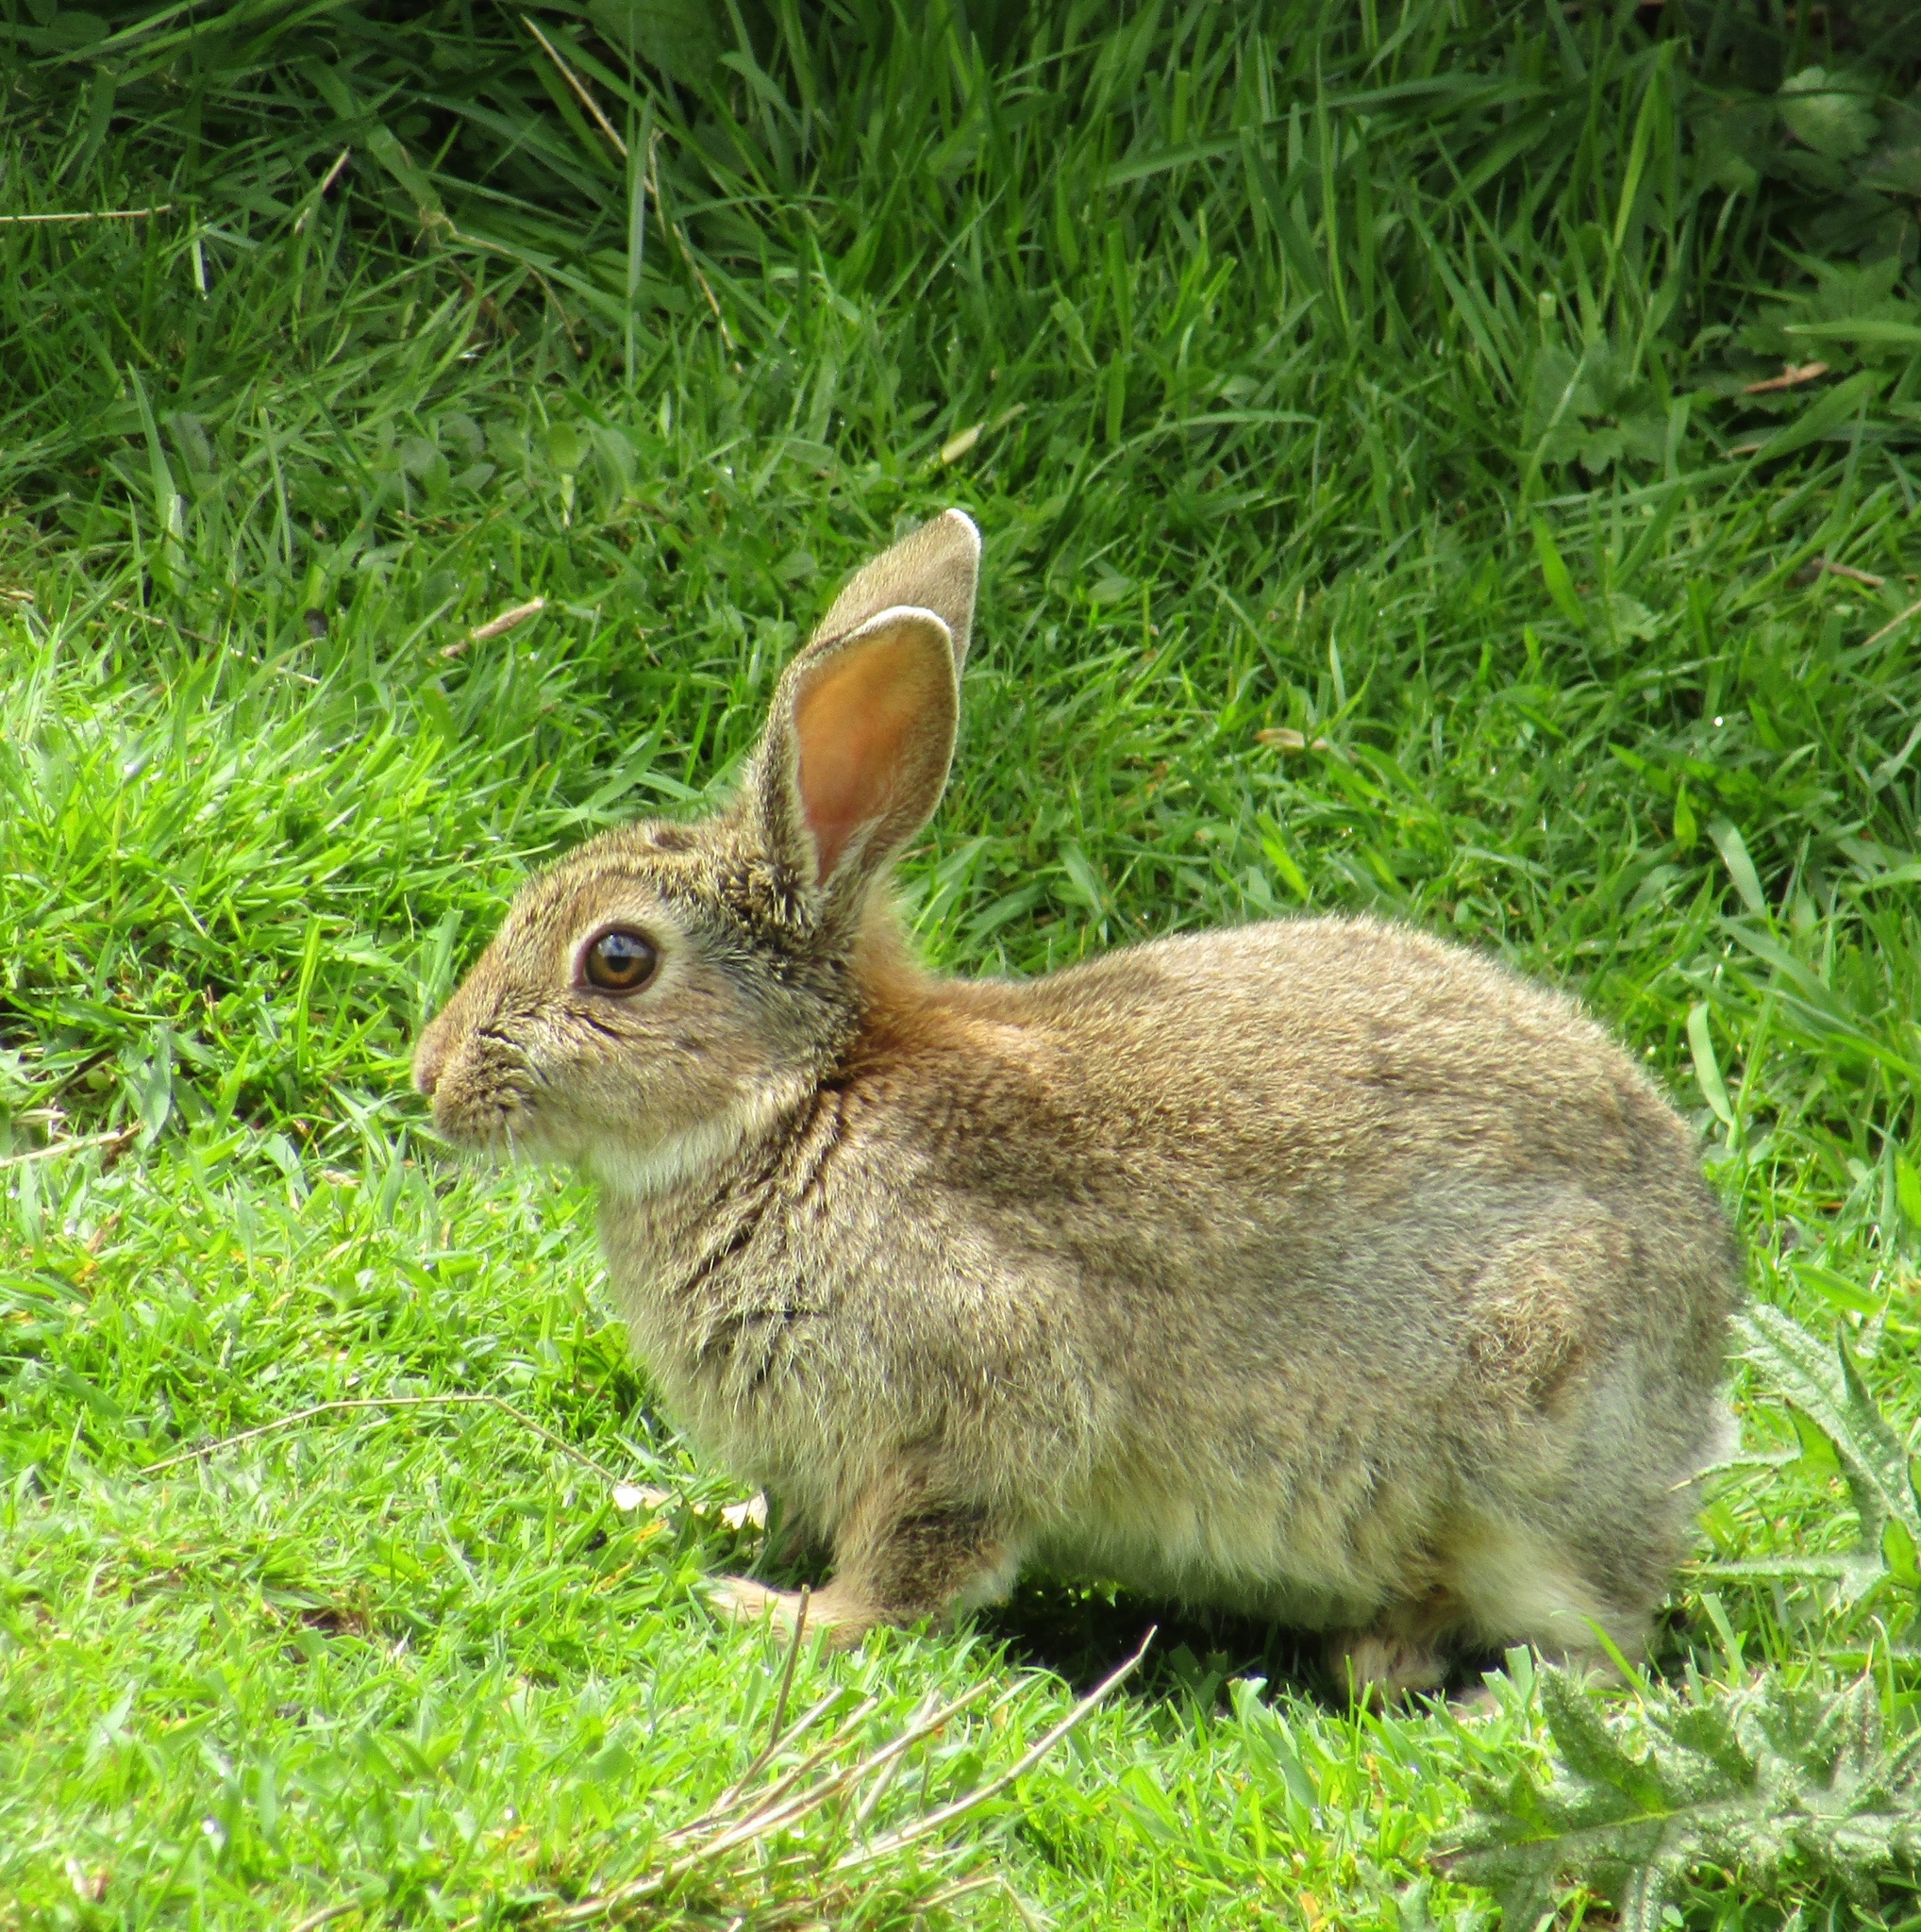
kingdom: Animalia
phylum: Chordata
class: Mammalia
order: Lagomorpha
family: Leporidae
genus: Oryctolagus
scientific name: Oryctolagus cuniculus
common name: European rabbit
